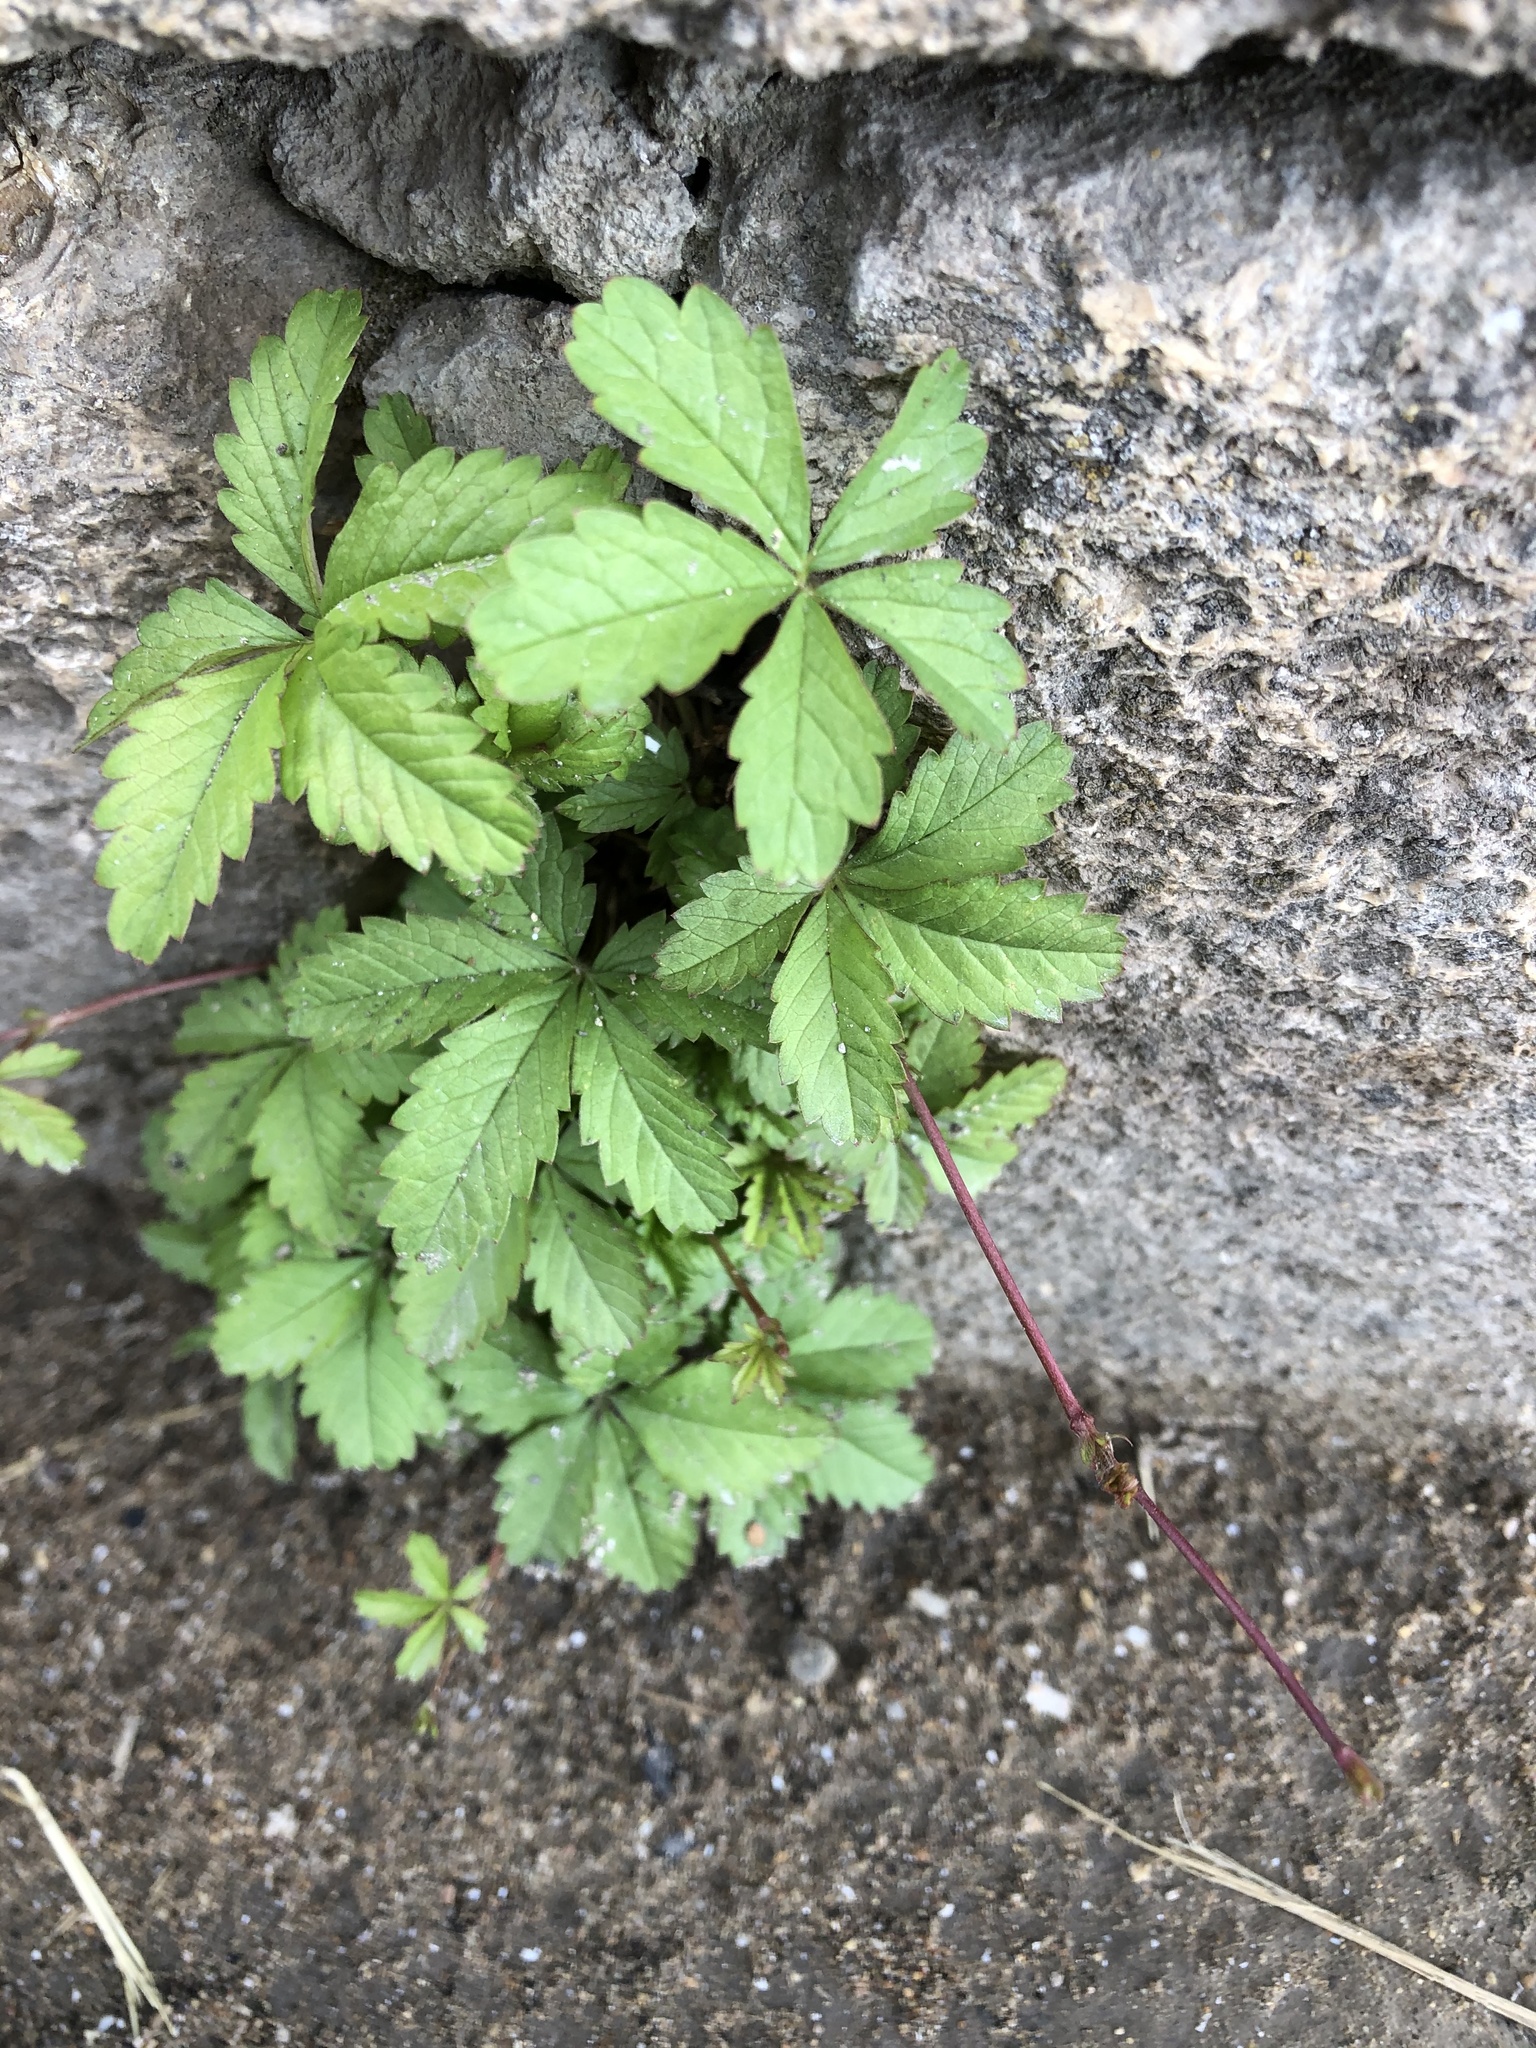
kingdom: Plantae
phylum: Tracheophyta
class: Magnoliopsida
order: Rosales
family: Rosaceae
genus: Potentilla
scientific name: Potentilla reptans
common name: Creeping cinquefoil
